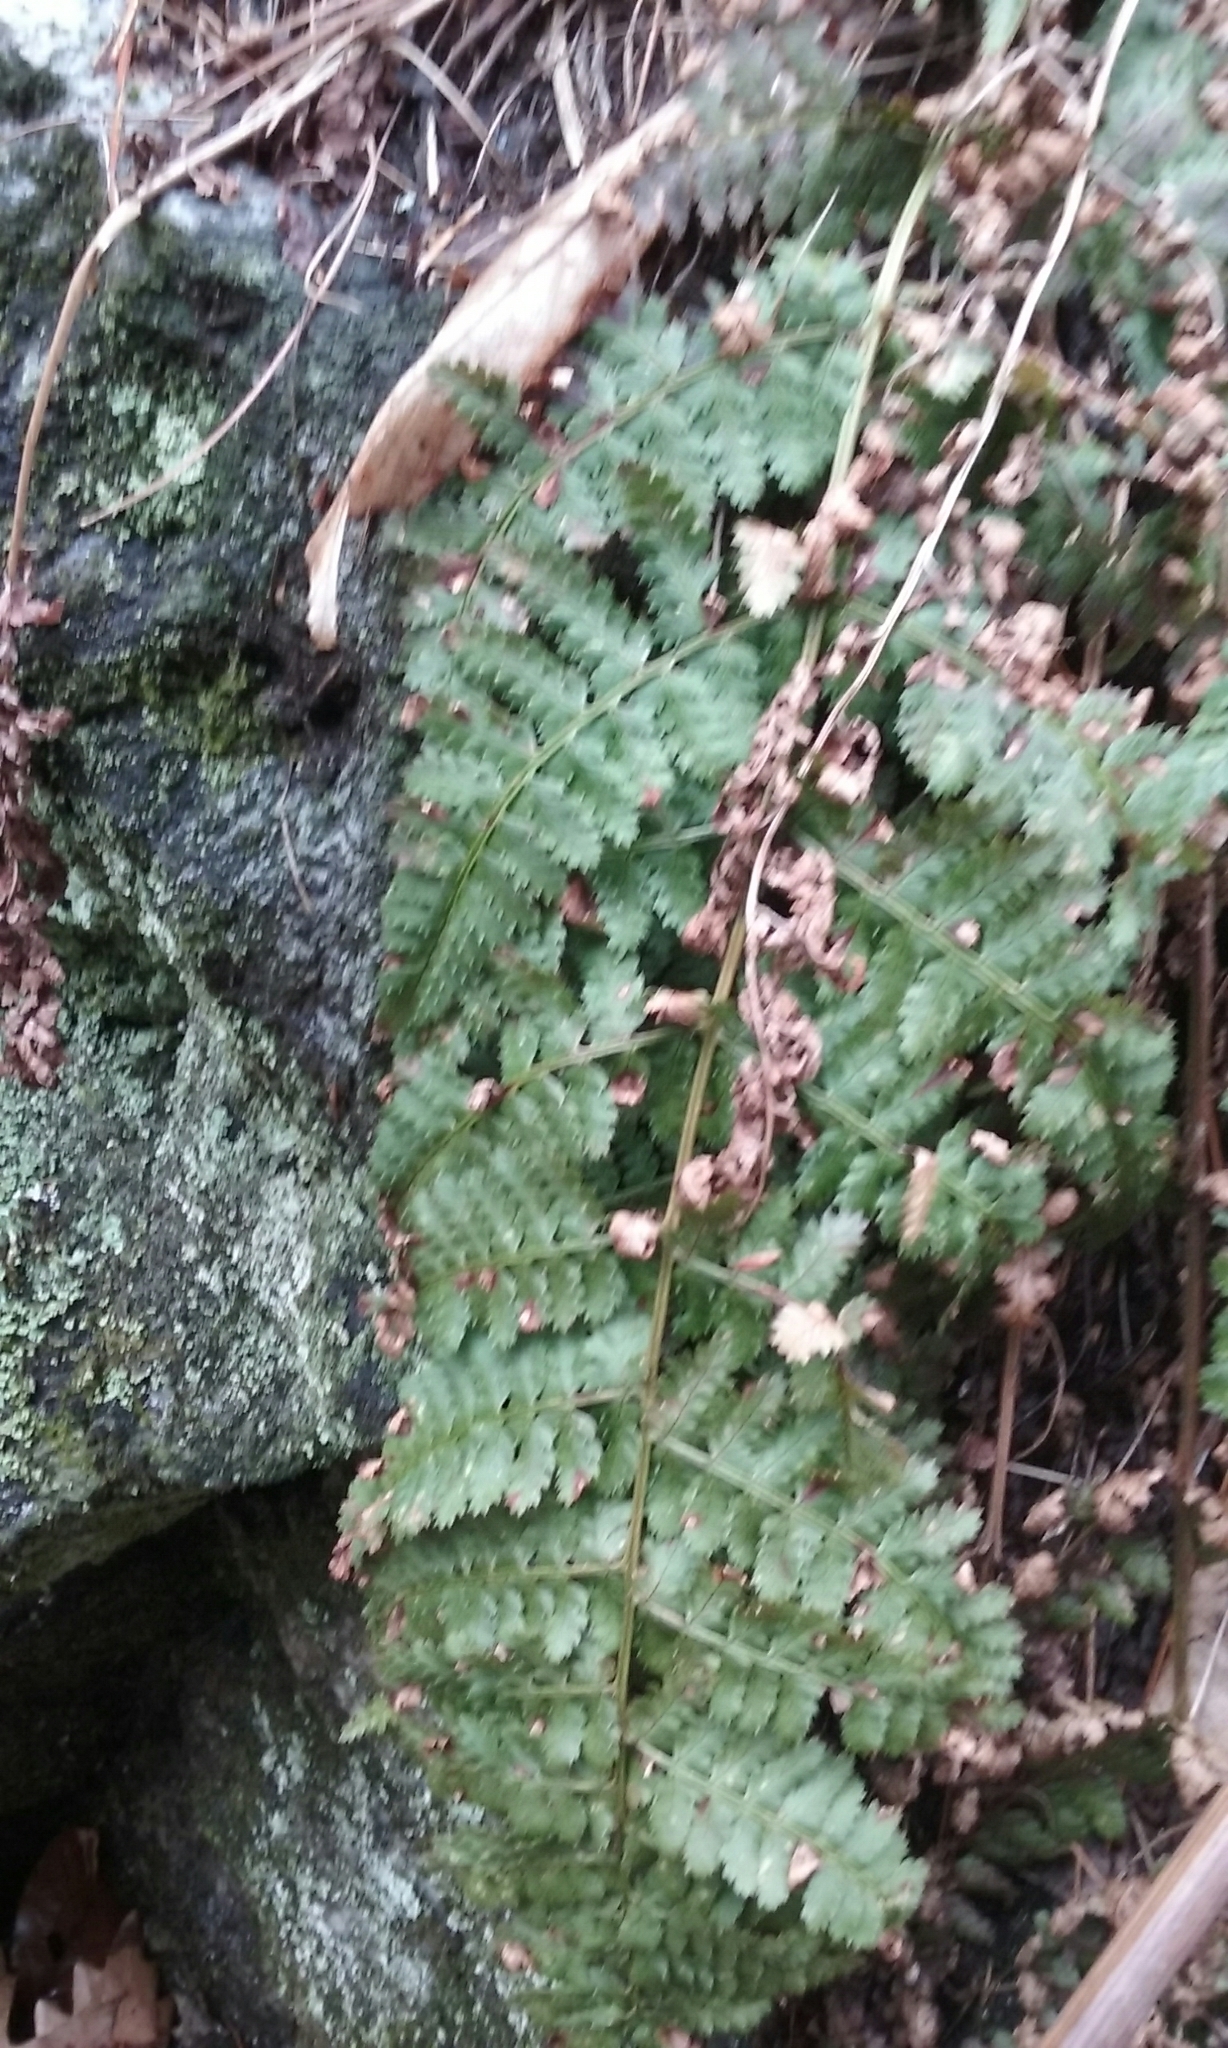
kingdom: Plantae
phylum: Tracheophyta
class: Polypodiopsida
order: Polypodiales
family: Dryopteridaceae
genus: Dryopteris
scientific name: Dryopteris intermedia
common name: Evergreen wood fern
